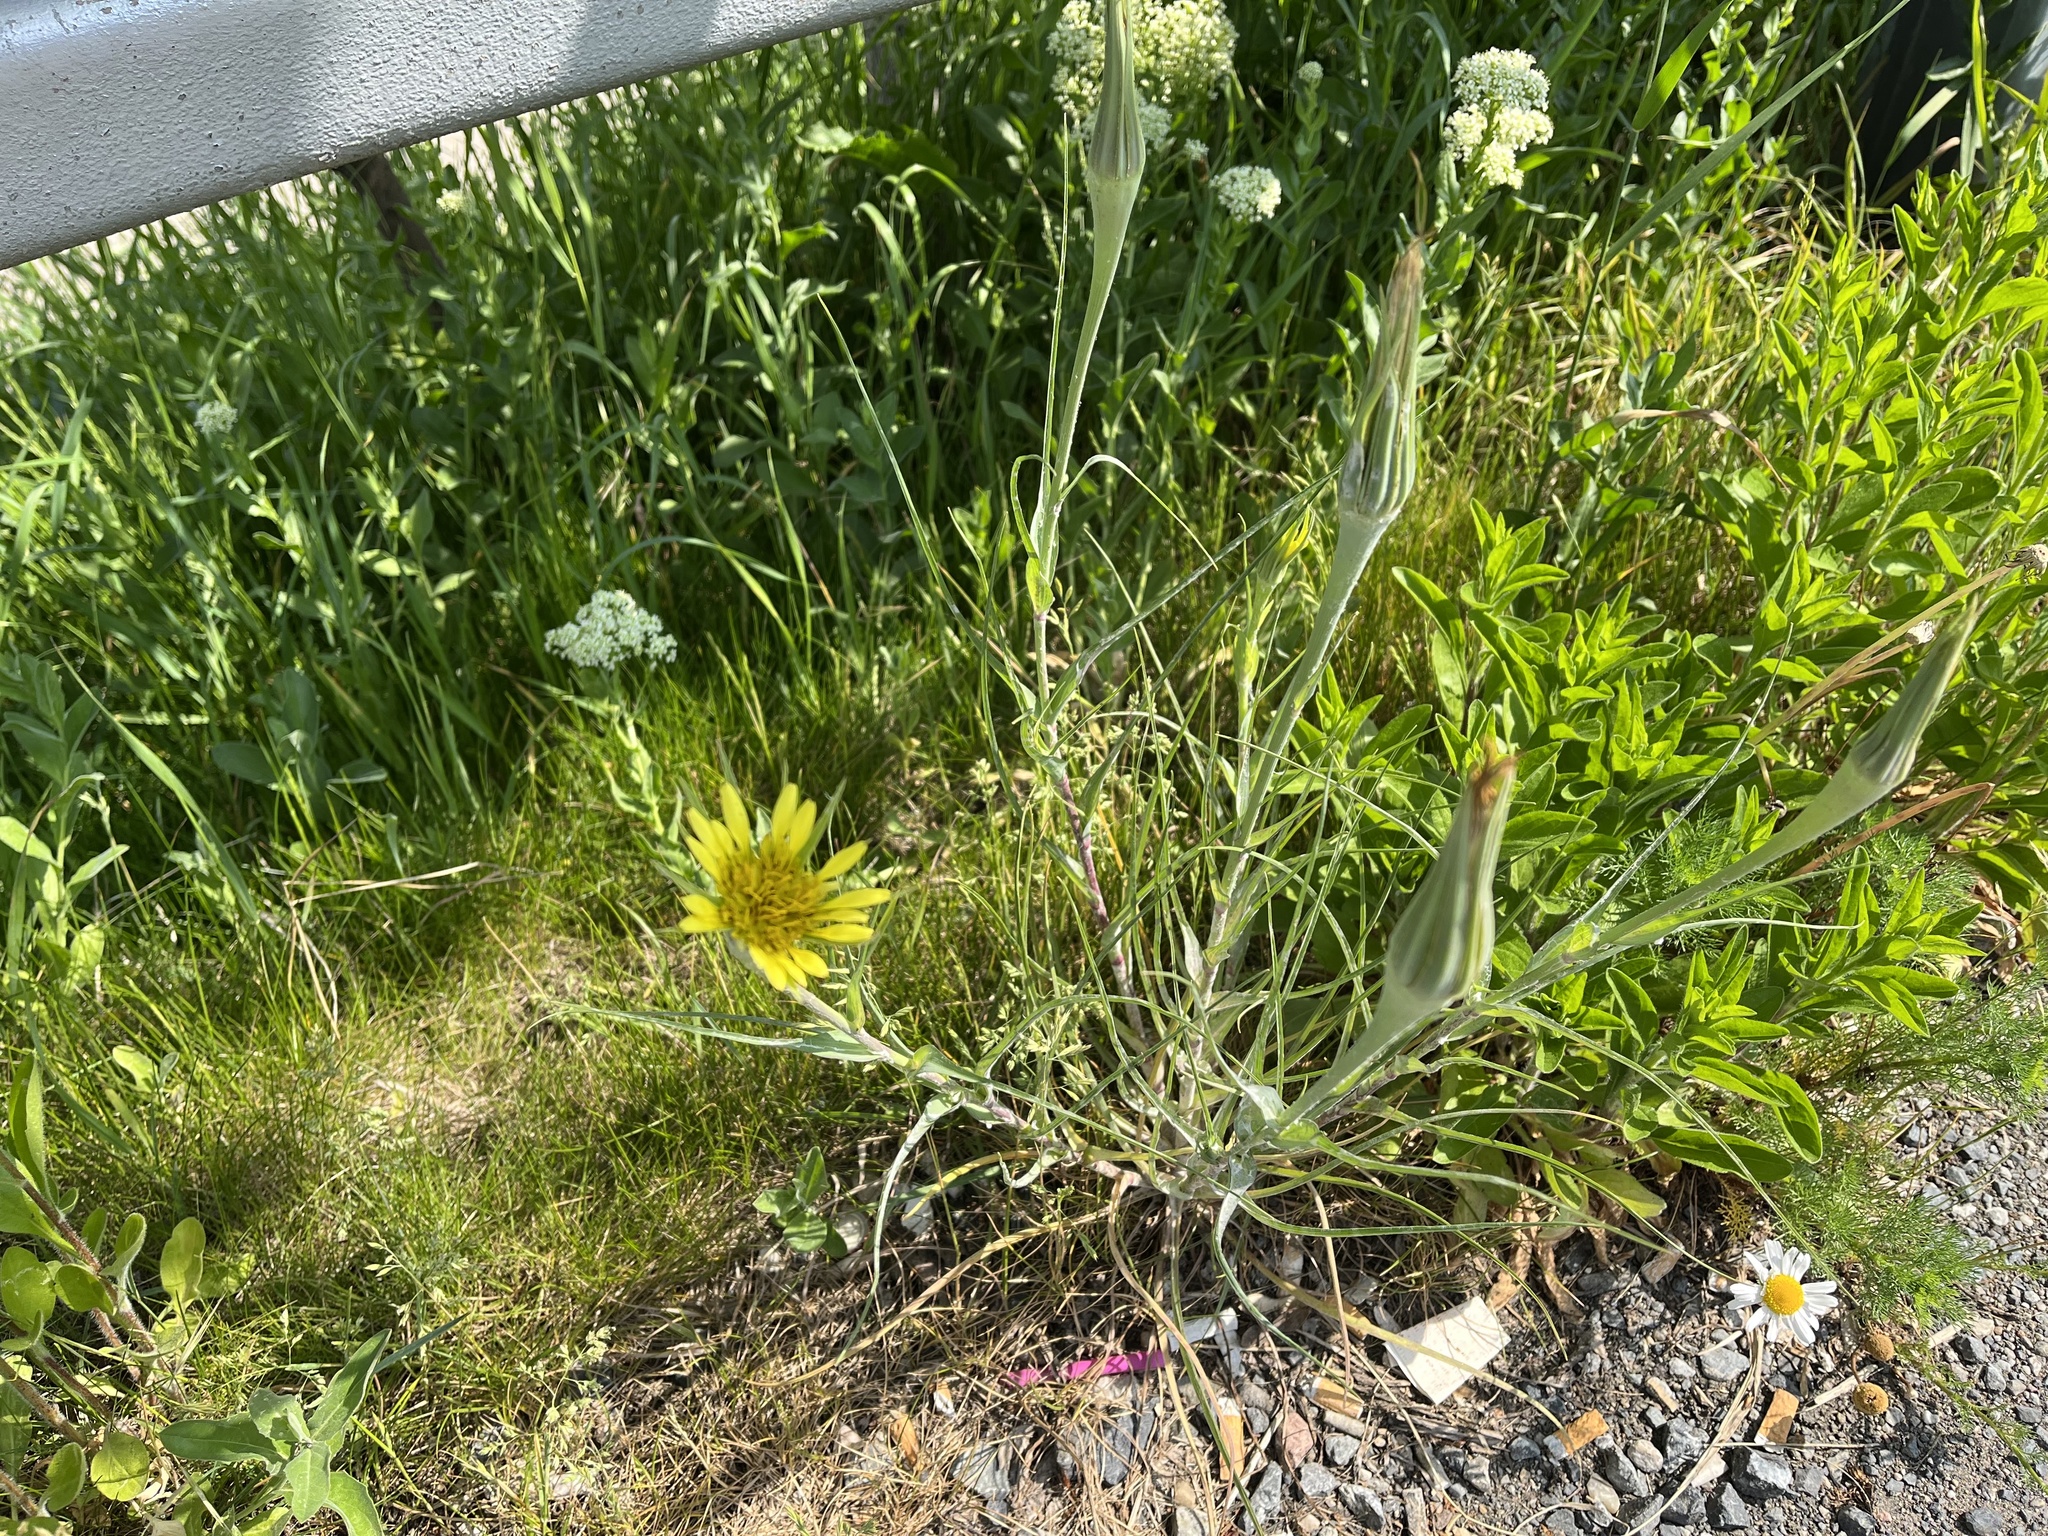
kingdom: Plantae
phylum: Tracheophyta
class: Magnoliopsida
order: Asterales
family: Asteraceae
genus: Tragopogon
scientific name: Tragopogon dubius
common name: Yellow salsify
